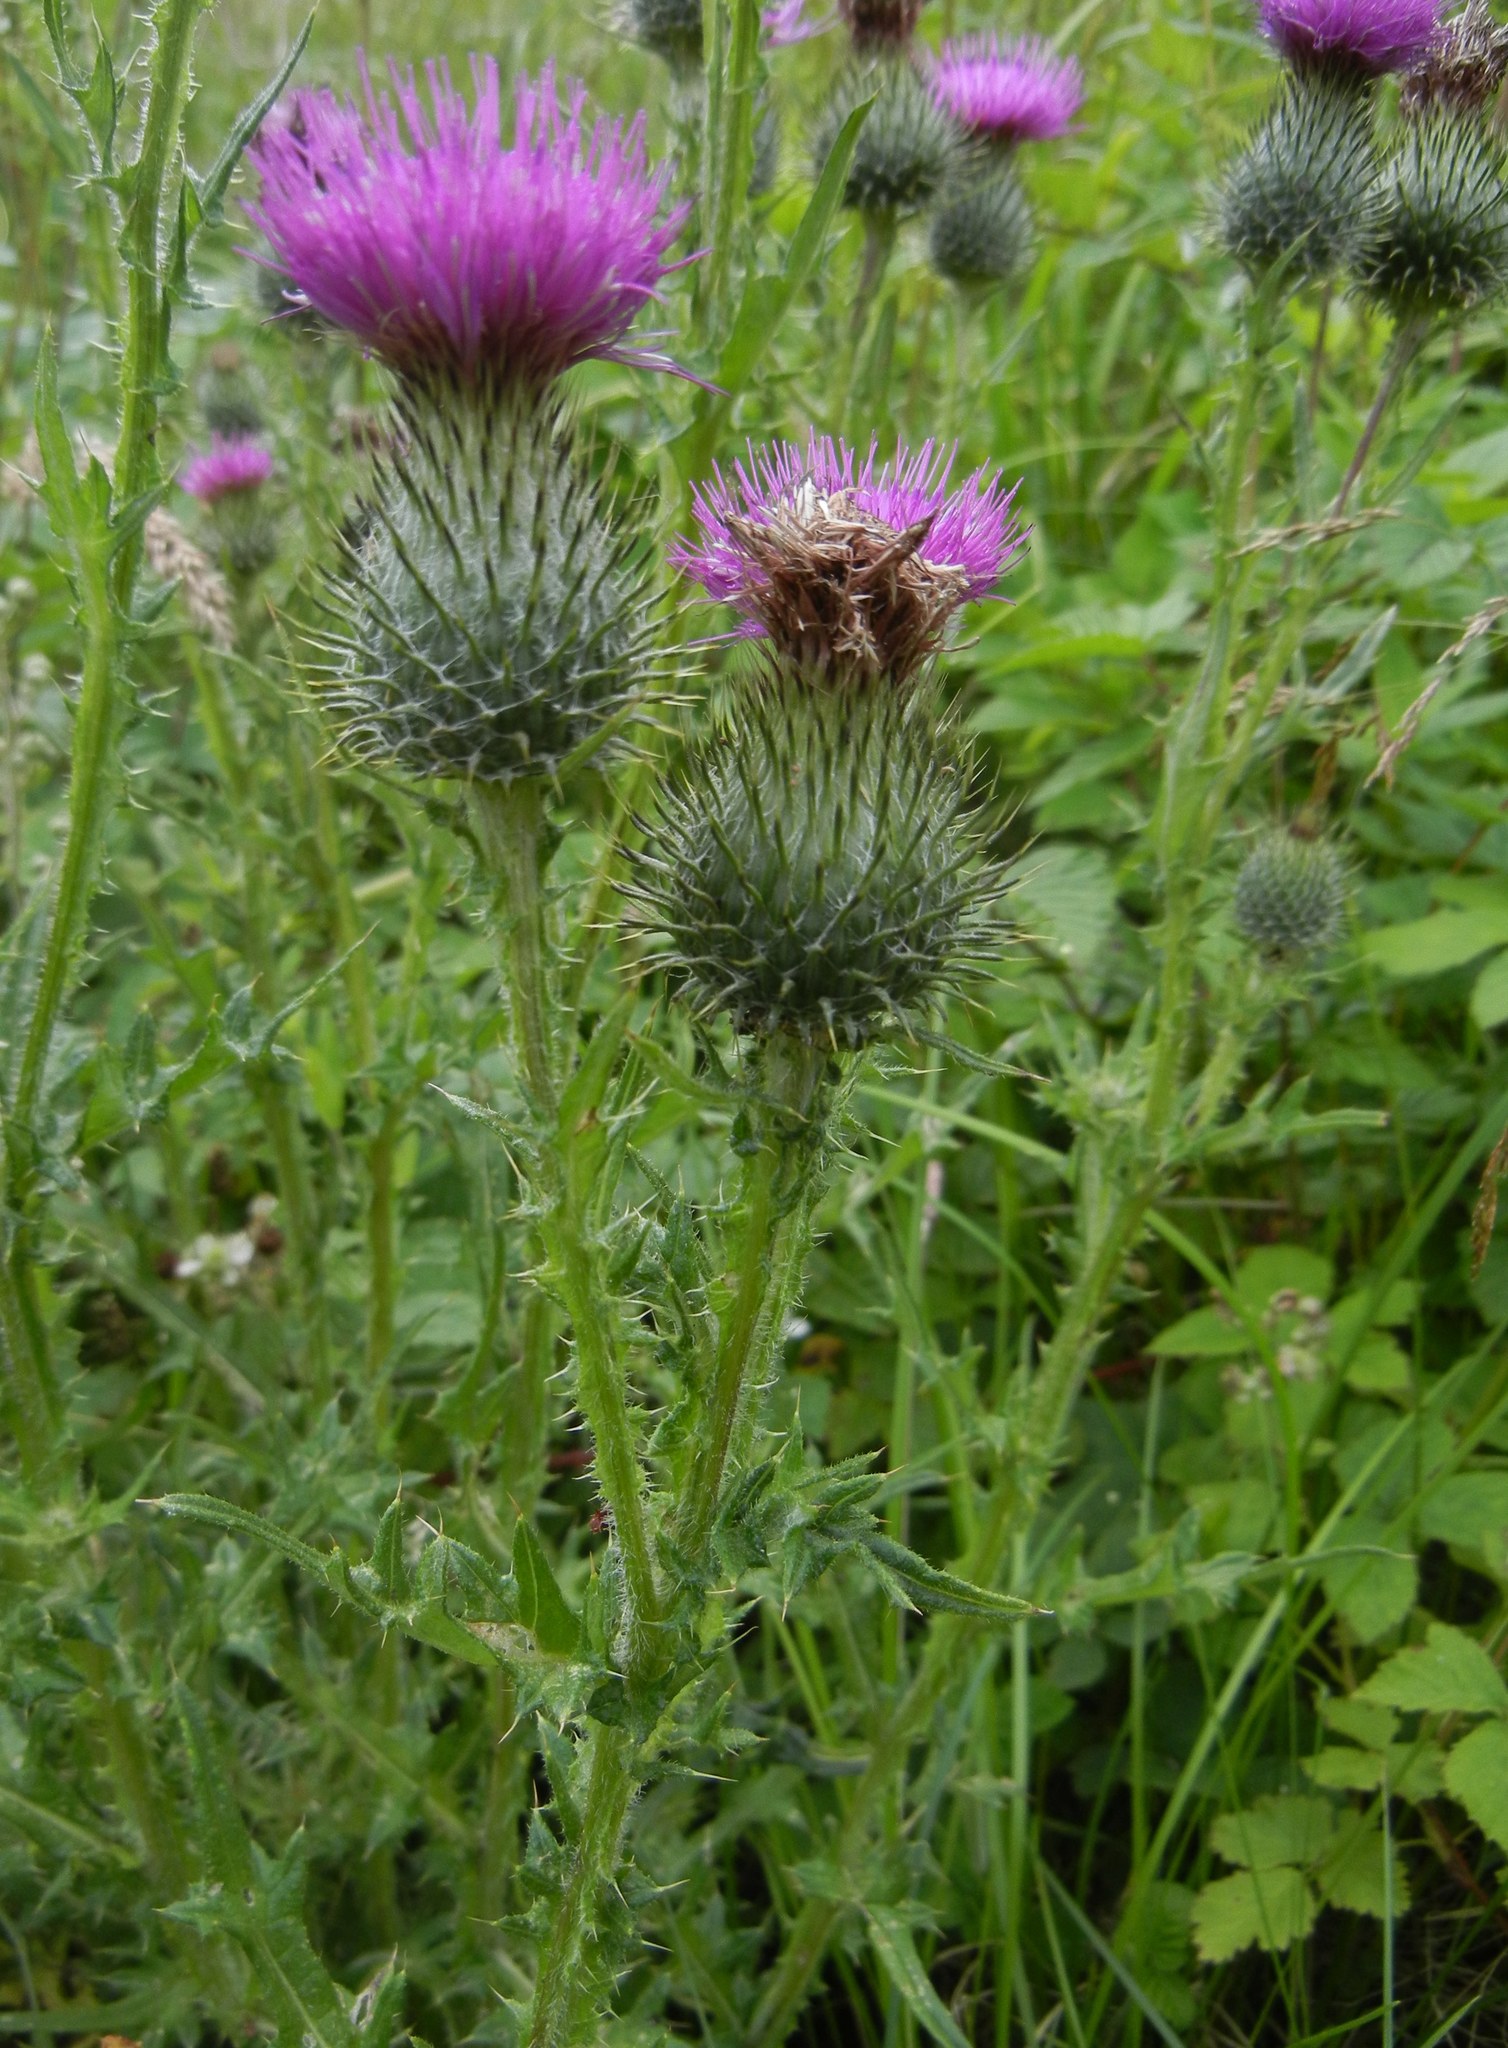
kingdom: Plantae
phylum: Tracheophyta
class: Magnoliopsida
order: Asterales
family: Asteraceae
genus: Cirsium
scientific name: Cirsium vulgare
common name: Bull thistle
